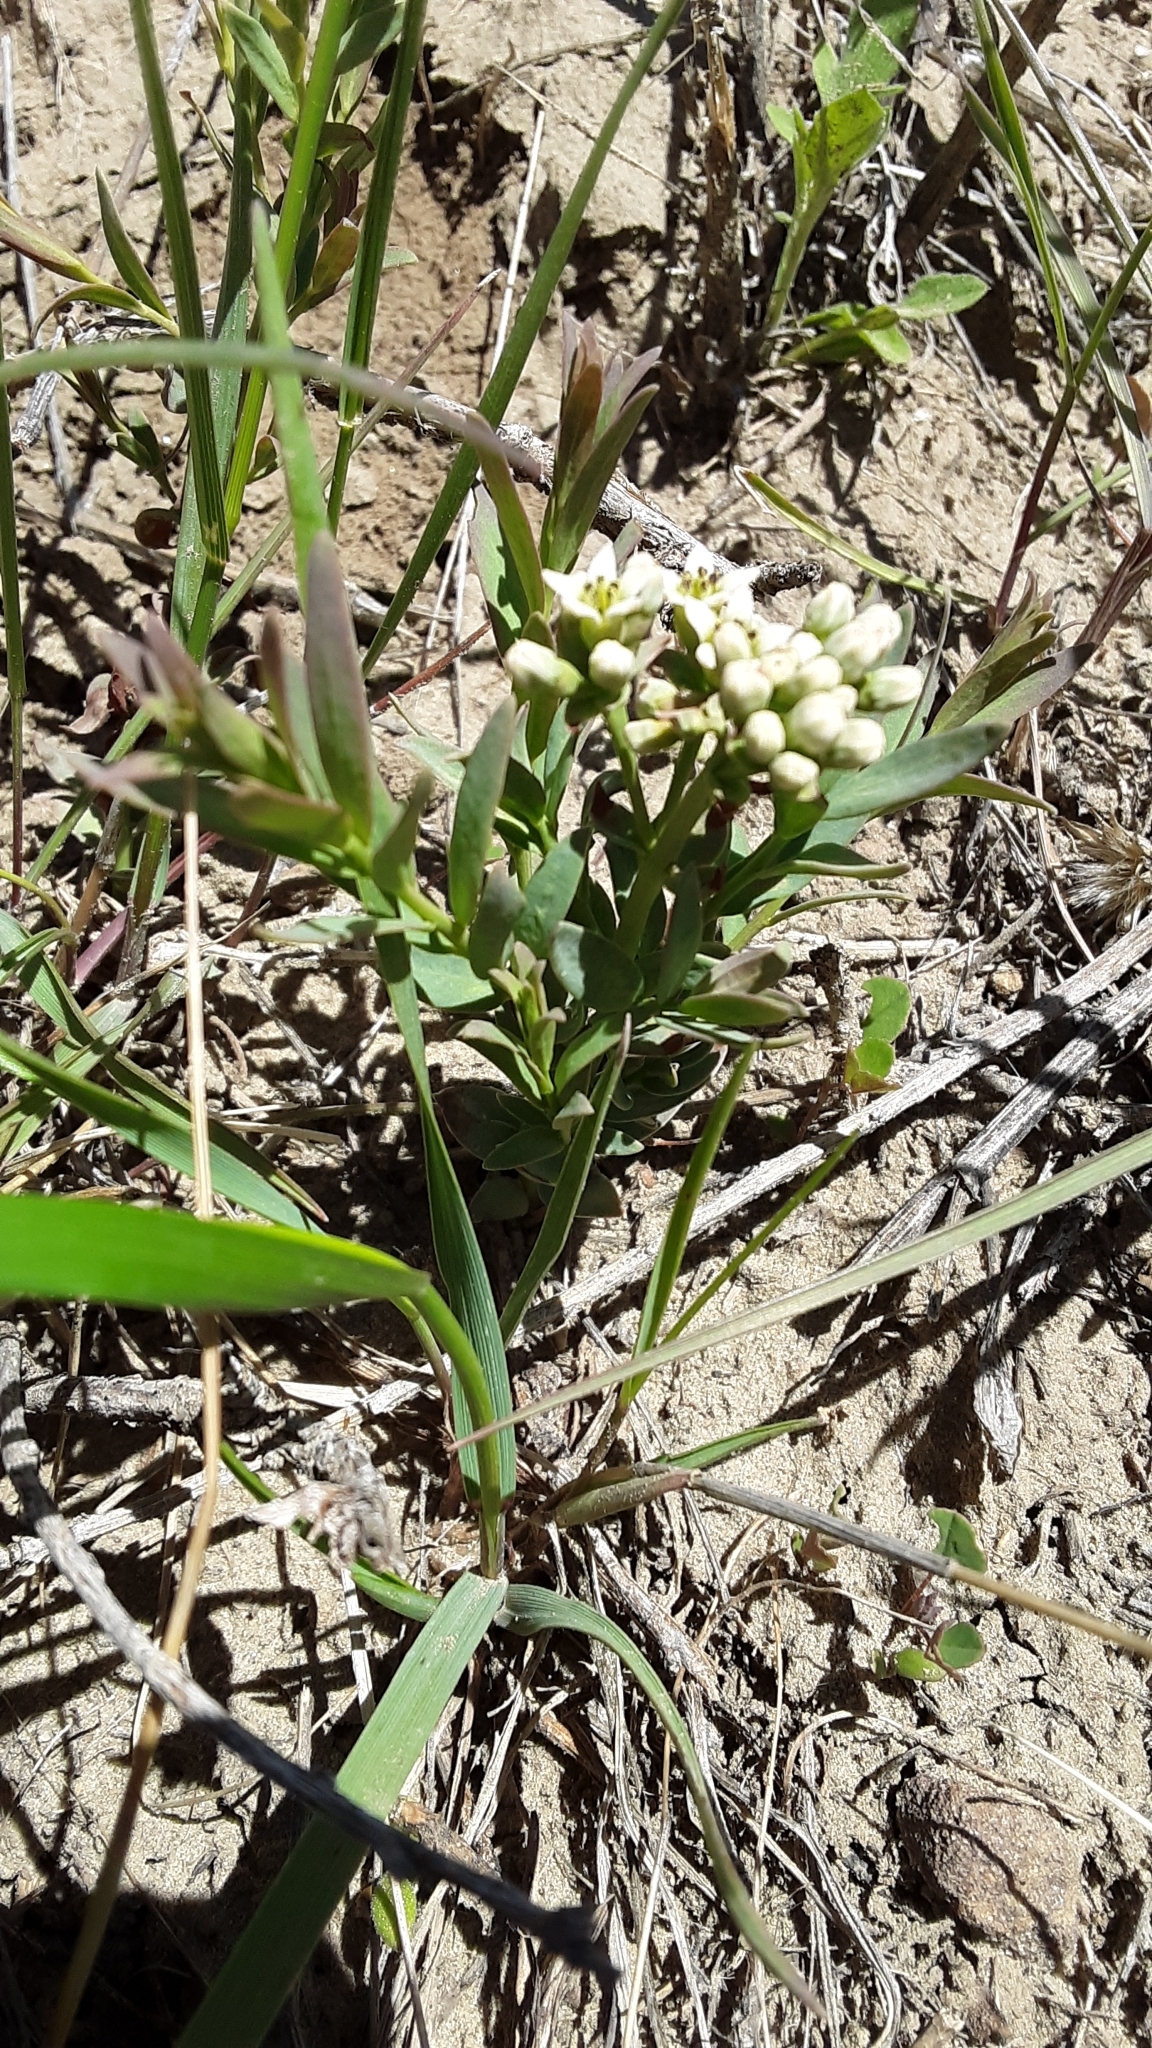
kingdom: Plantae
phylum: Tracheophyta
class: Magnoliopsida
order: Santalales
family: Comandraceae
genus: Comandra
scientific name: Comandra umbellata
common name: Bastard toadflax
